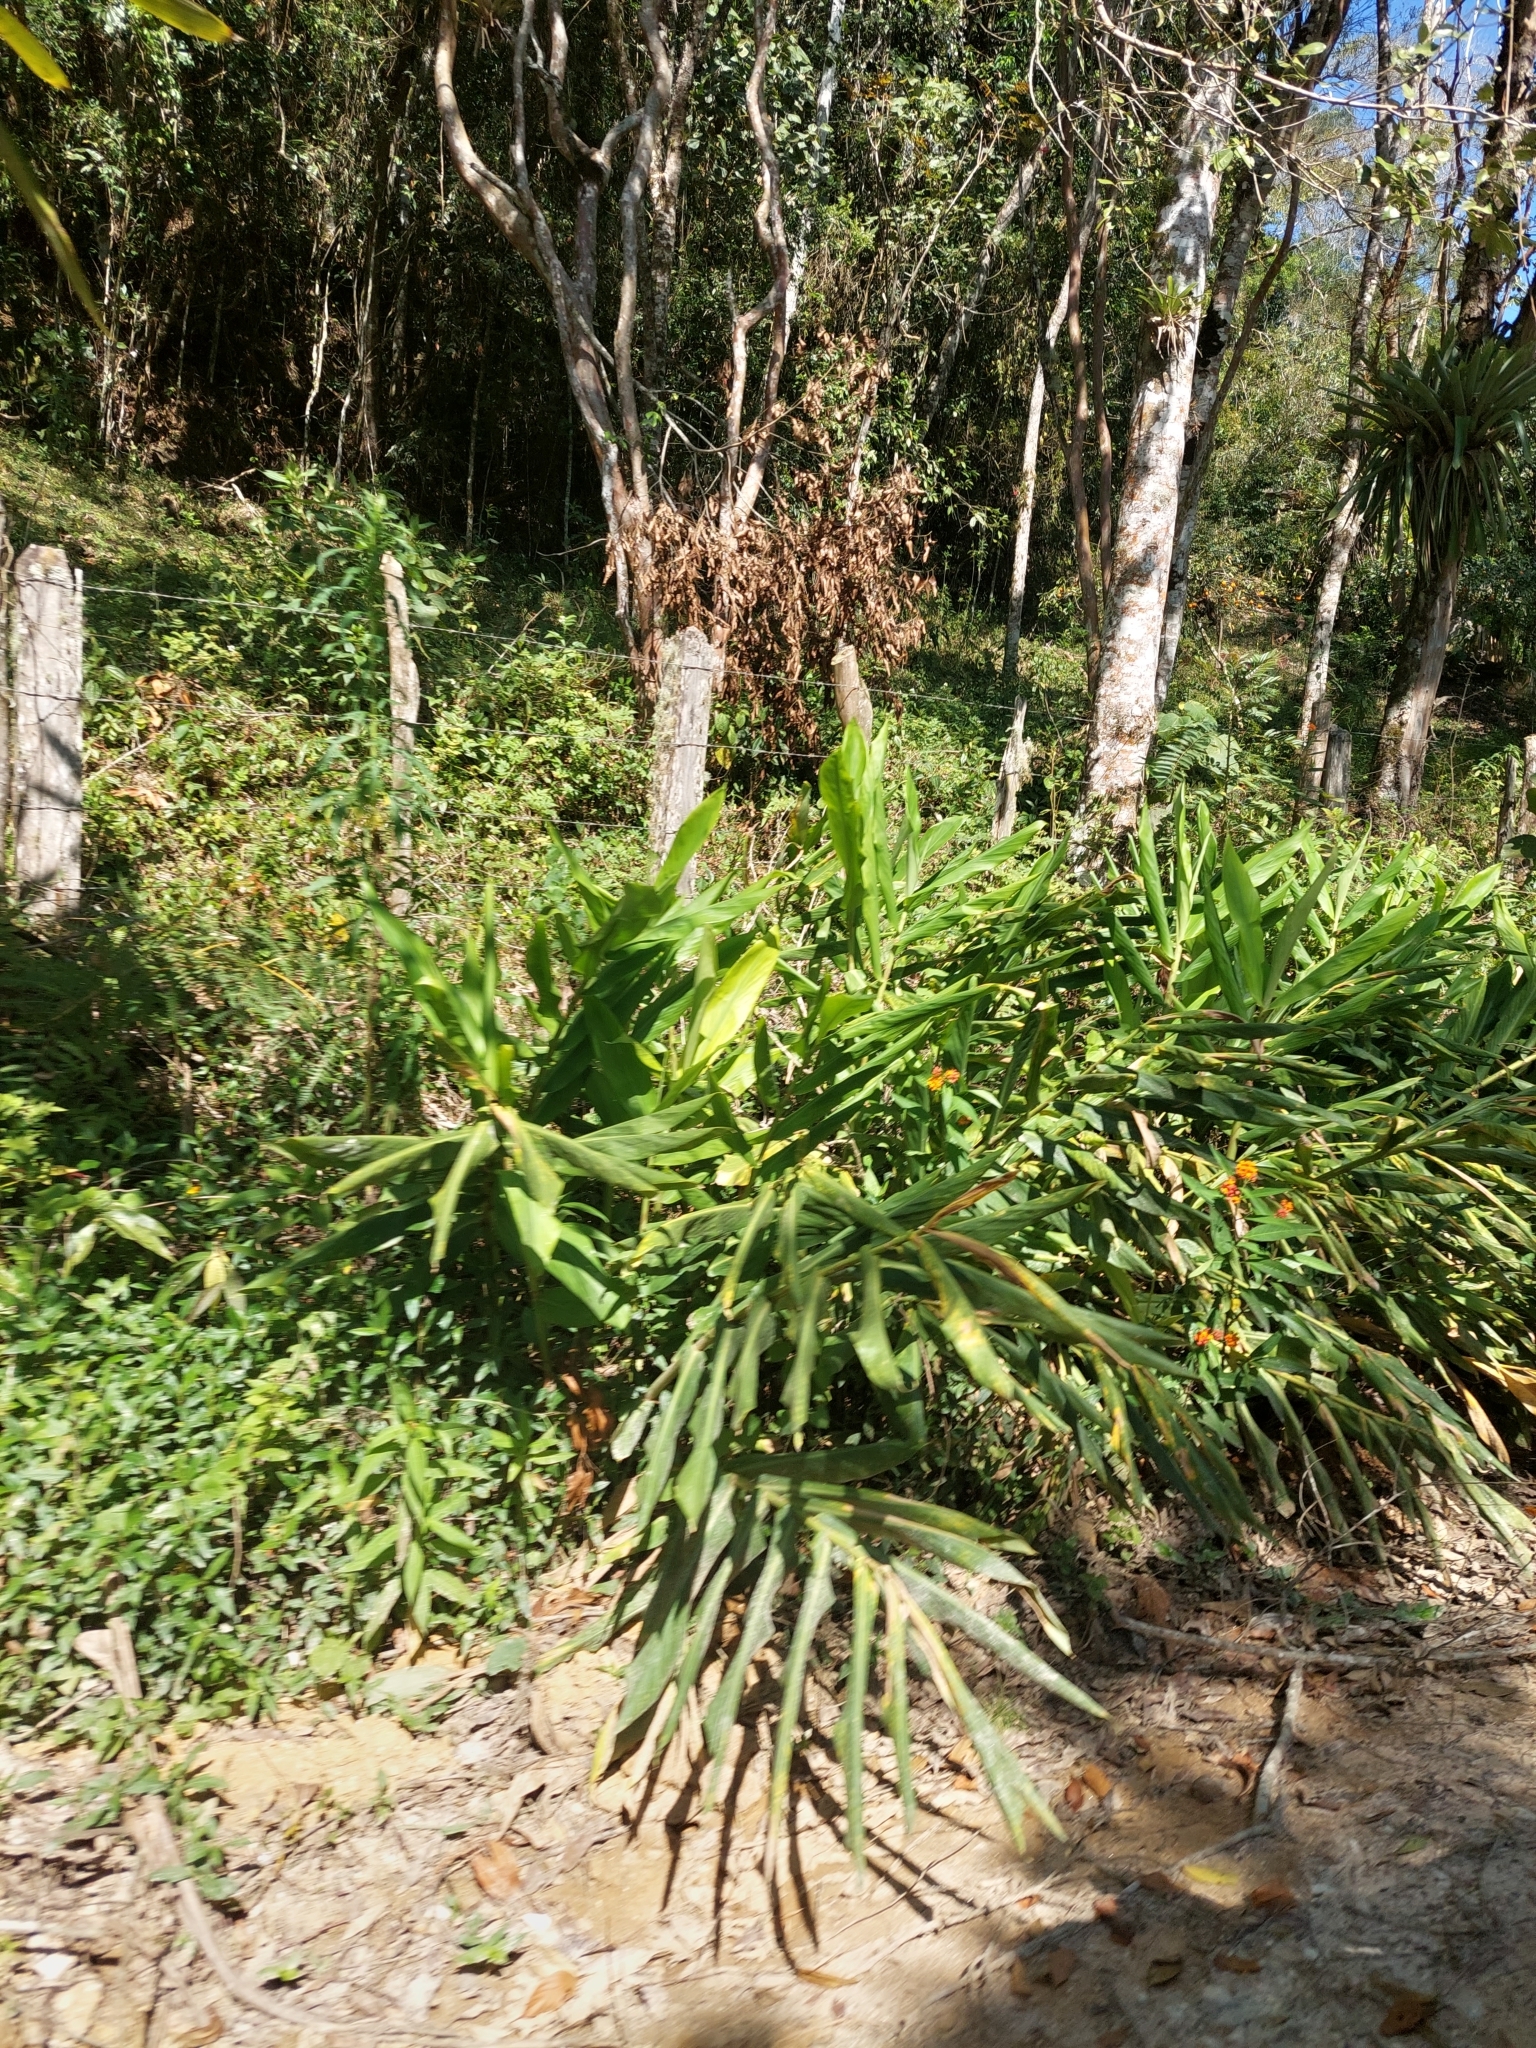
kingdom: Plantae
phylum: Tracheophyta
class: Liliopsida
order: Zingiberales
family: Zingiberaceae
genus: Hedychium
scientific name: Hedychium coronarium
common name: White garland-lily
